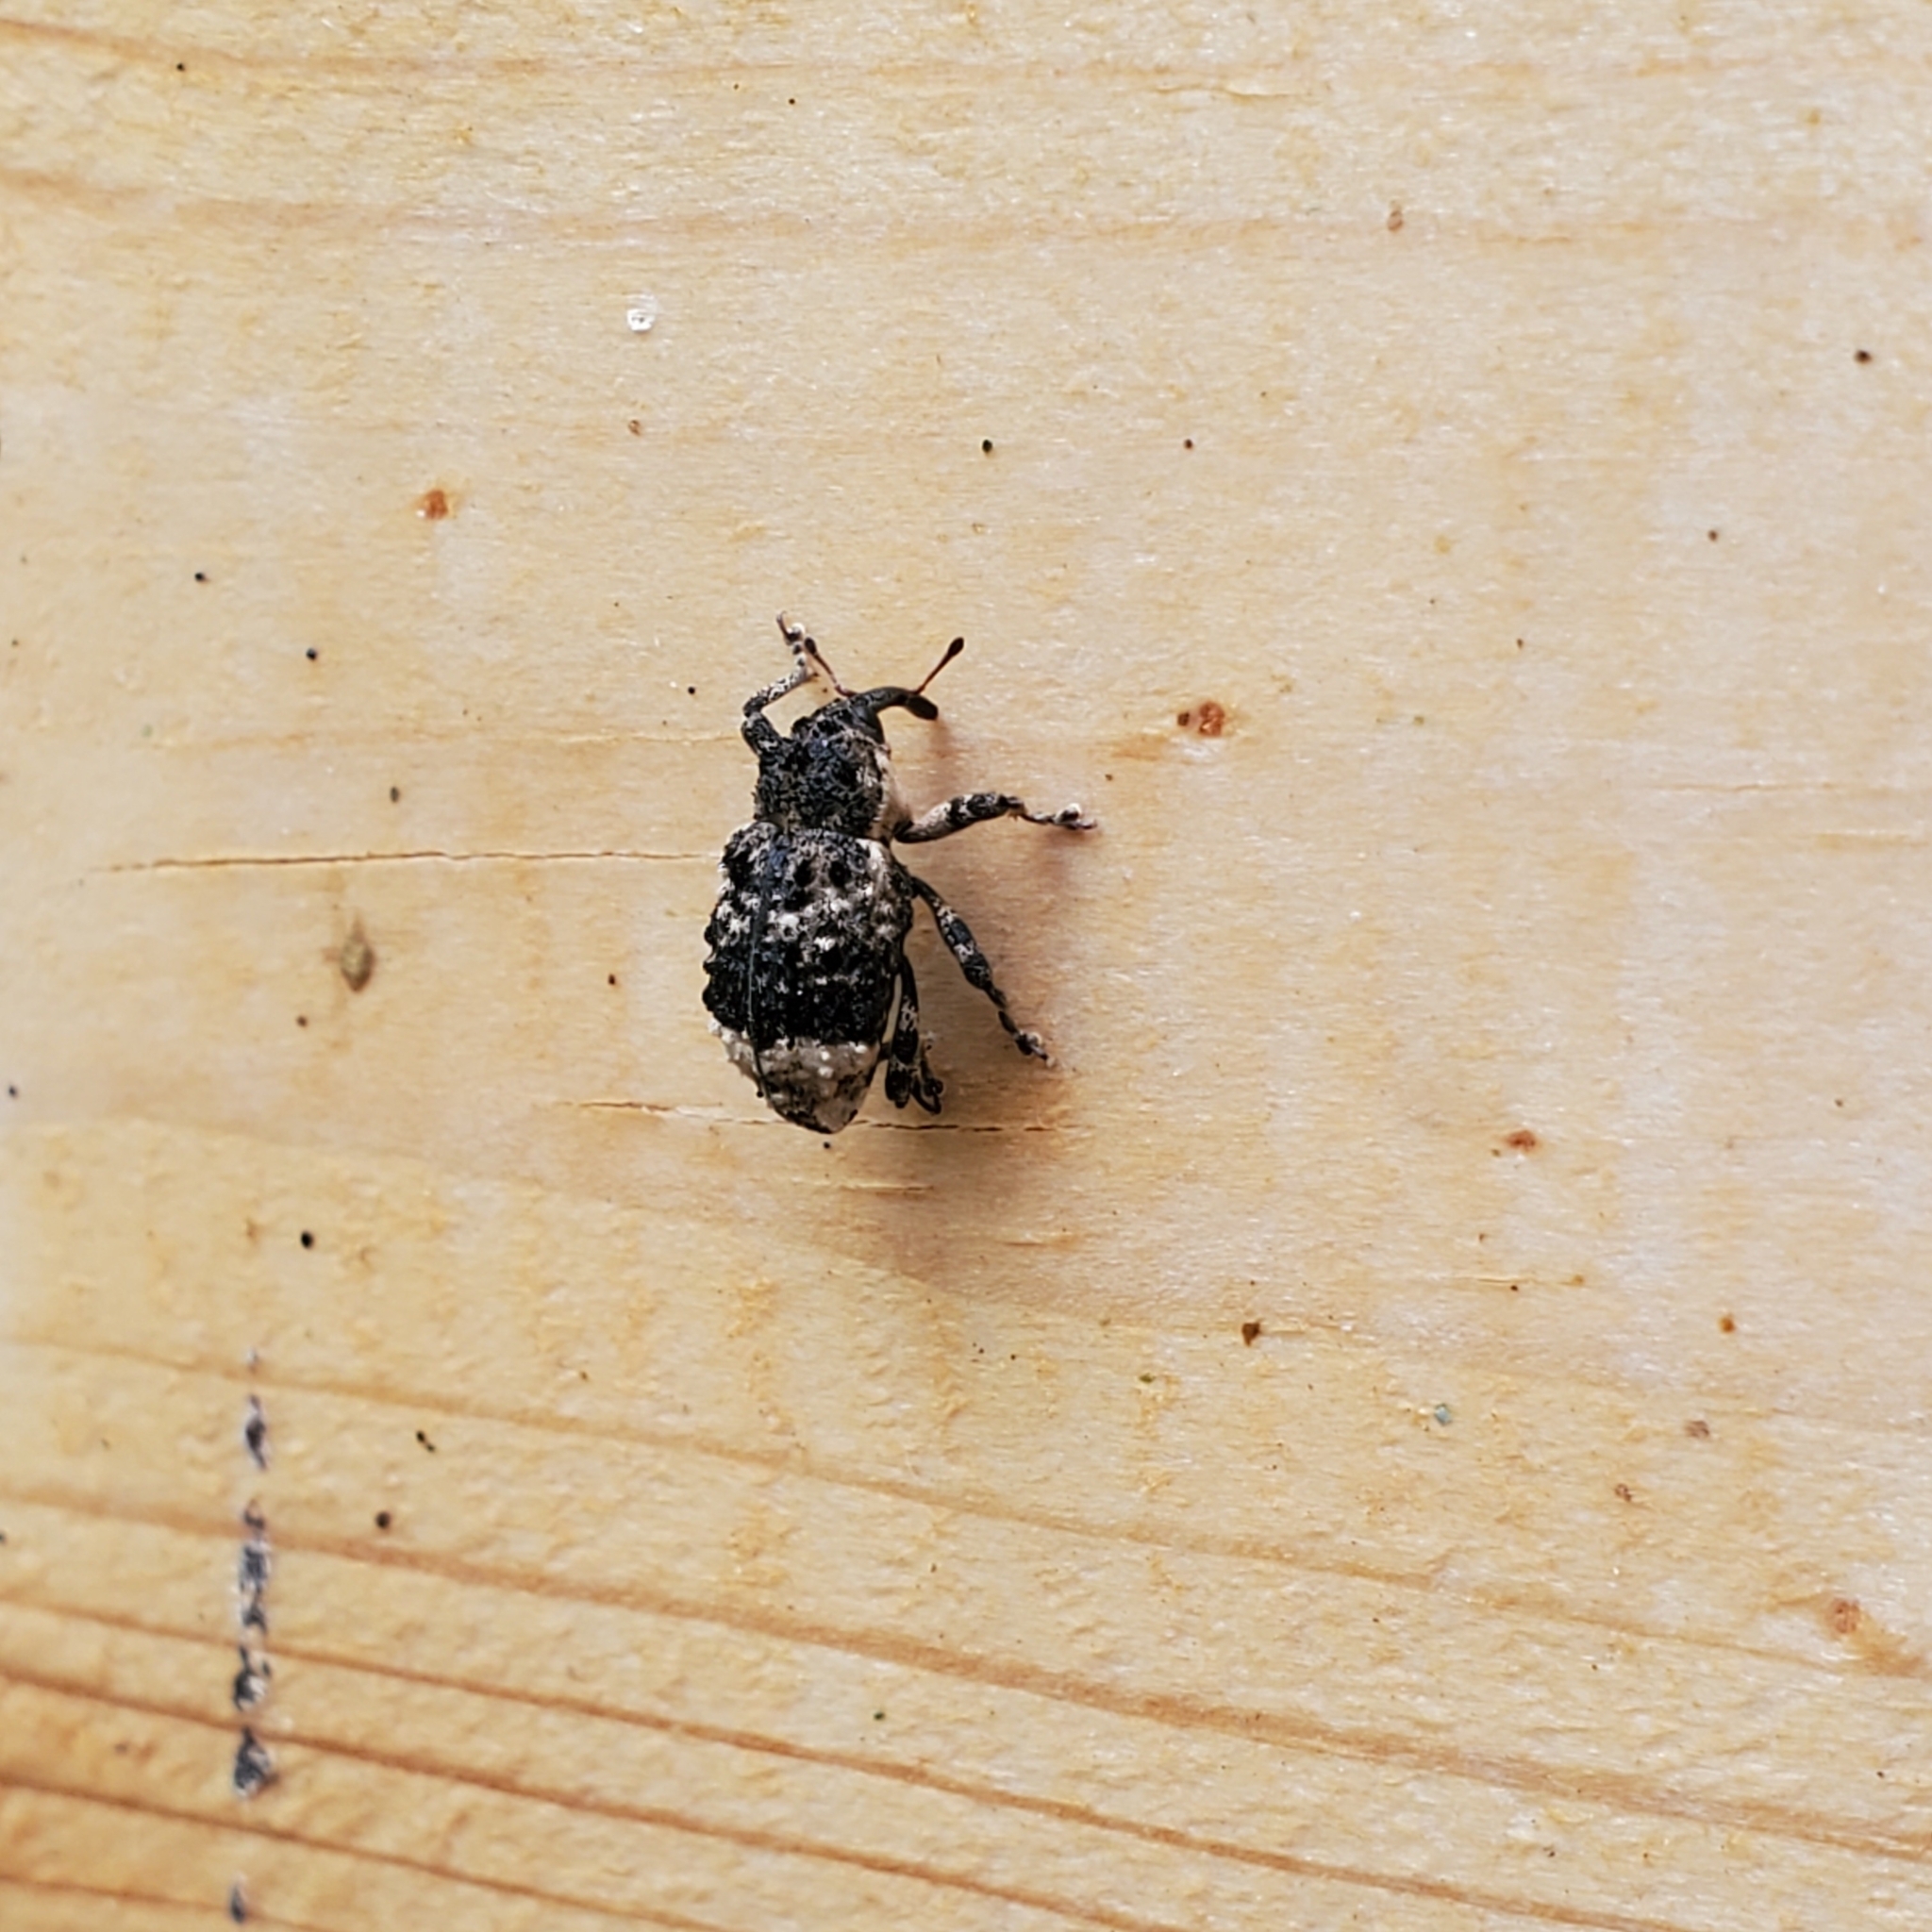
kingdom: Animalia
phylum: Arthropoda
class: Insecta
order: Coleoptera
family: Curculionidae
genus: Cryptorhynchus
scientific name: Cryptorhynchus lapathi
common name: Weevil
